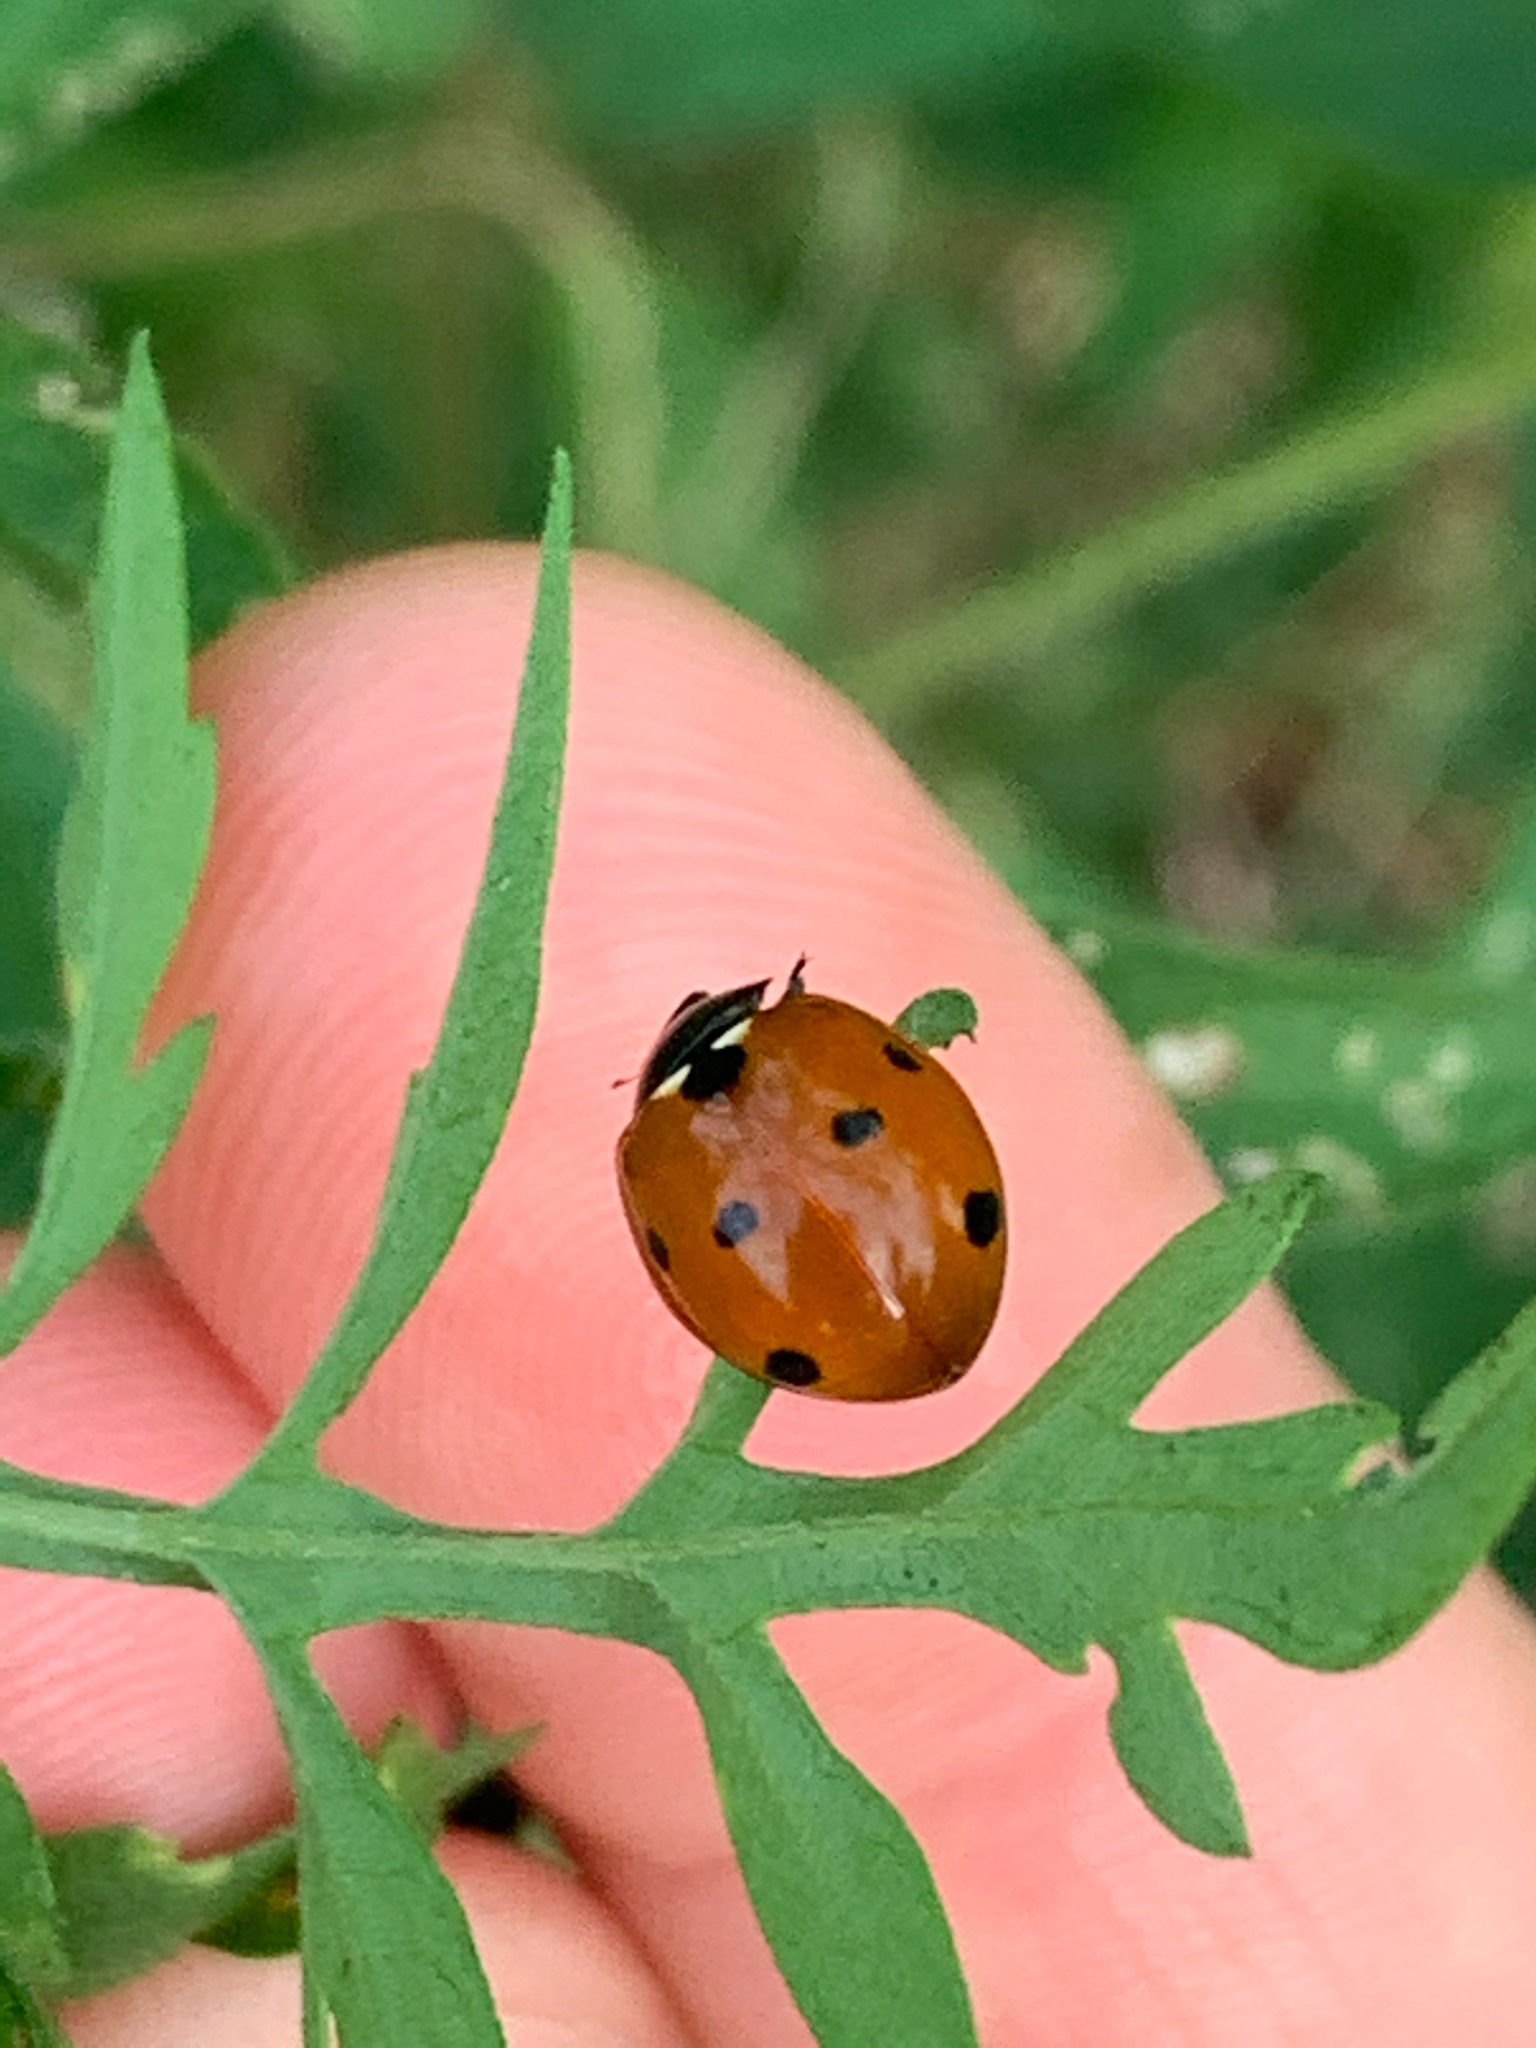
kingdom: Animalia
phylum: Arthropoda
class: Insecta
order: Coleoptera
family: Coccinellidae
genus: Coccinella
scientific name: Coccinella septempunctata
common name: Sevenspotted lady beetle
